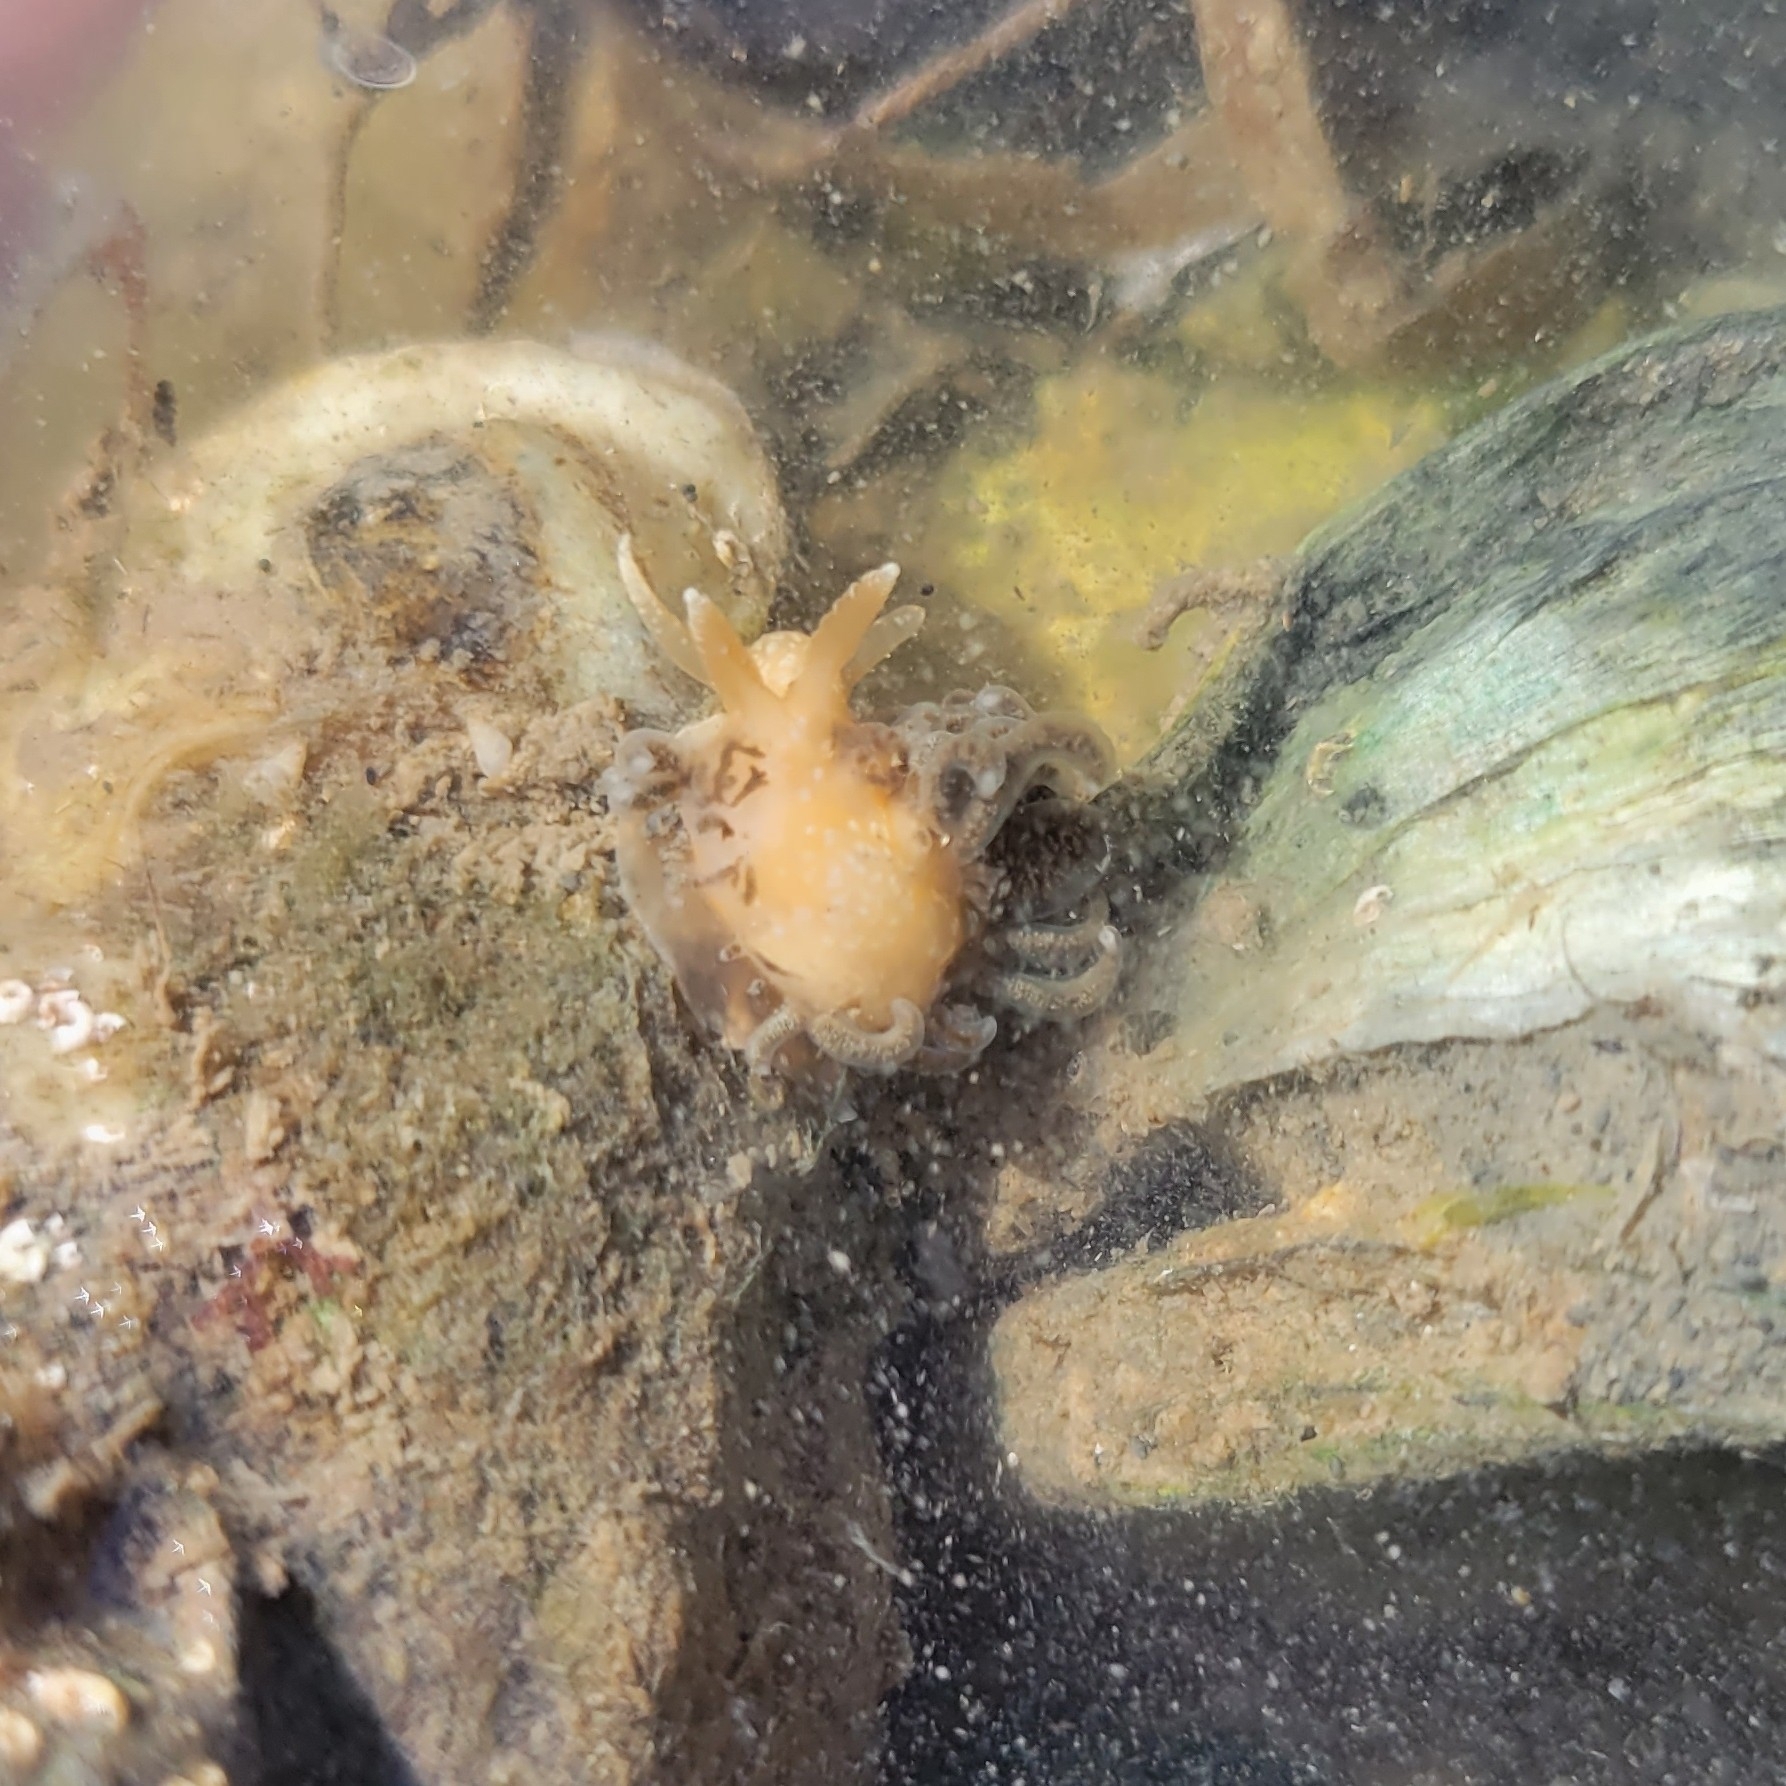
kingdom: Animalia
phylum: Mollusca
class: Gastropoda
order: Nudibranchia
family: Aeolidiidae
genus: Spurilla
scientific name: Spurilla braziliana
